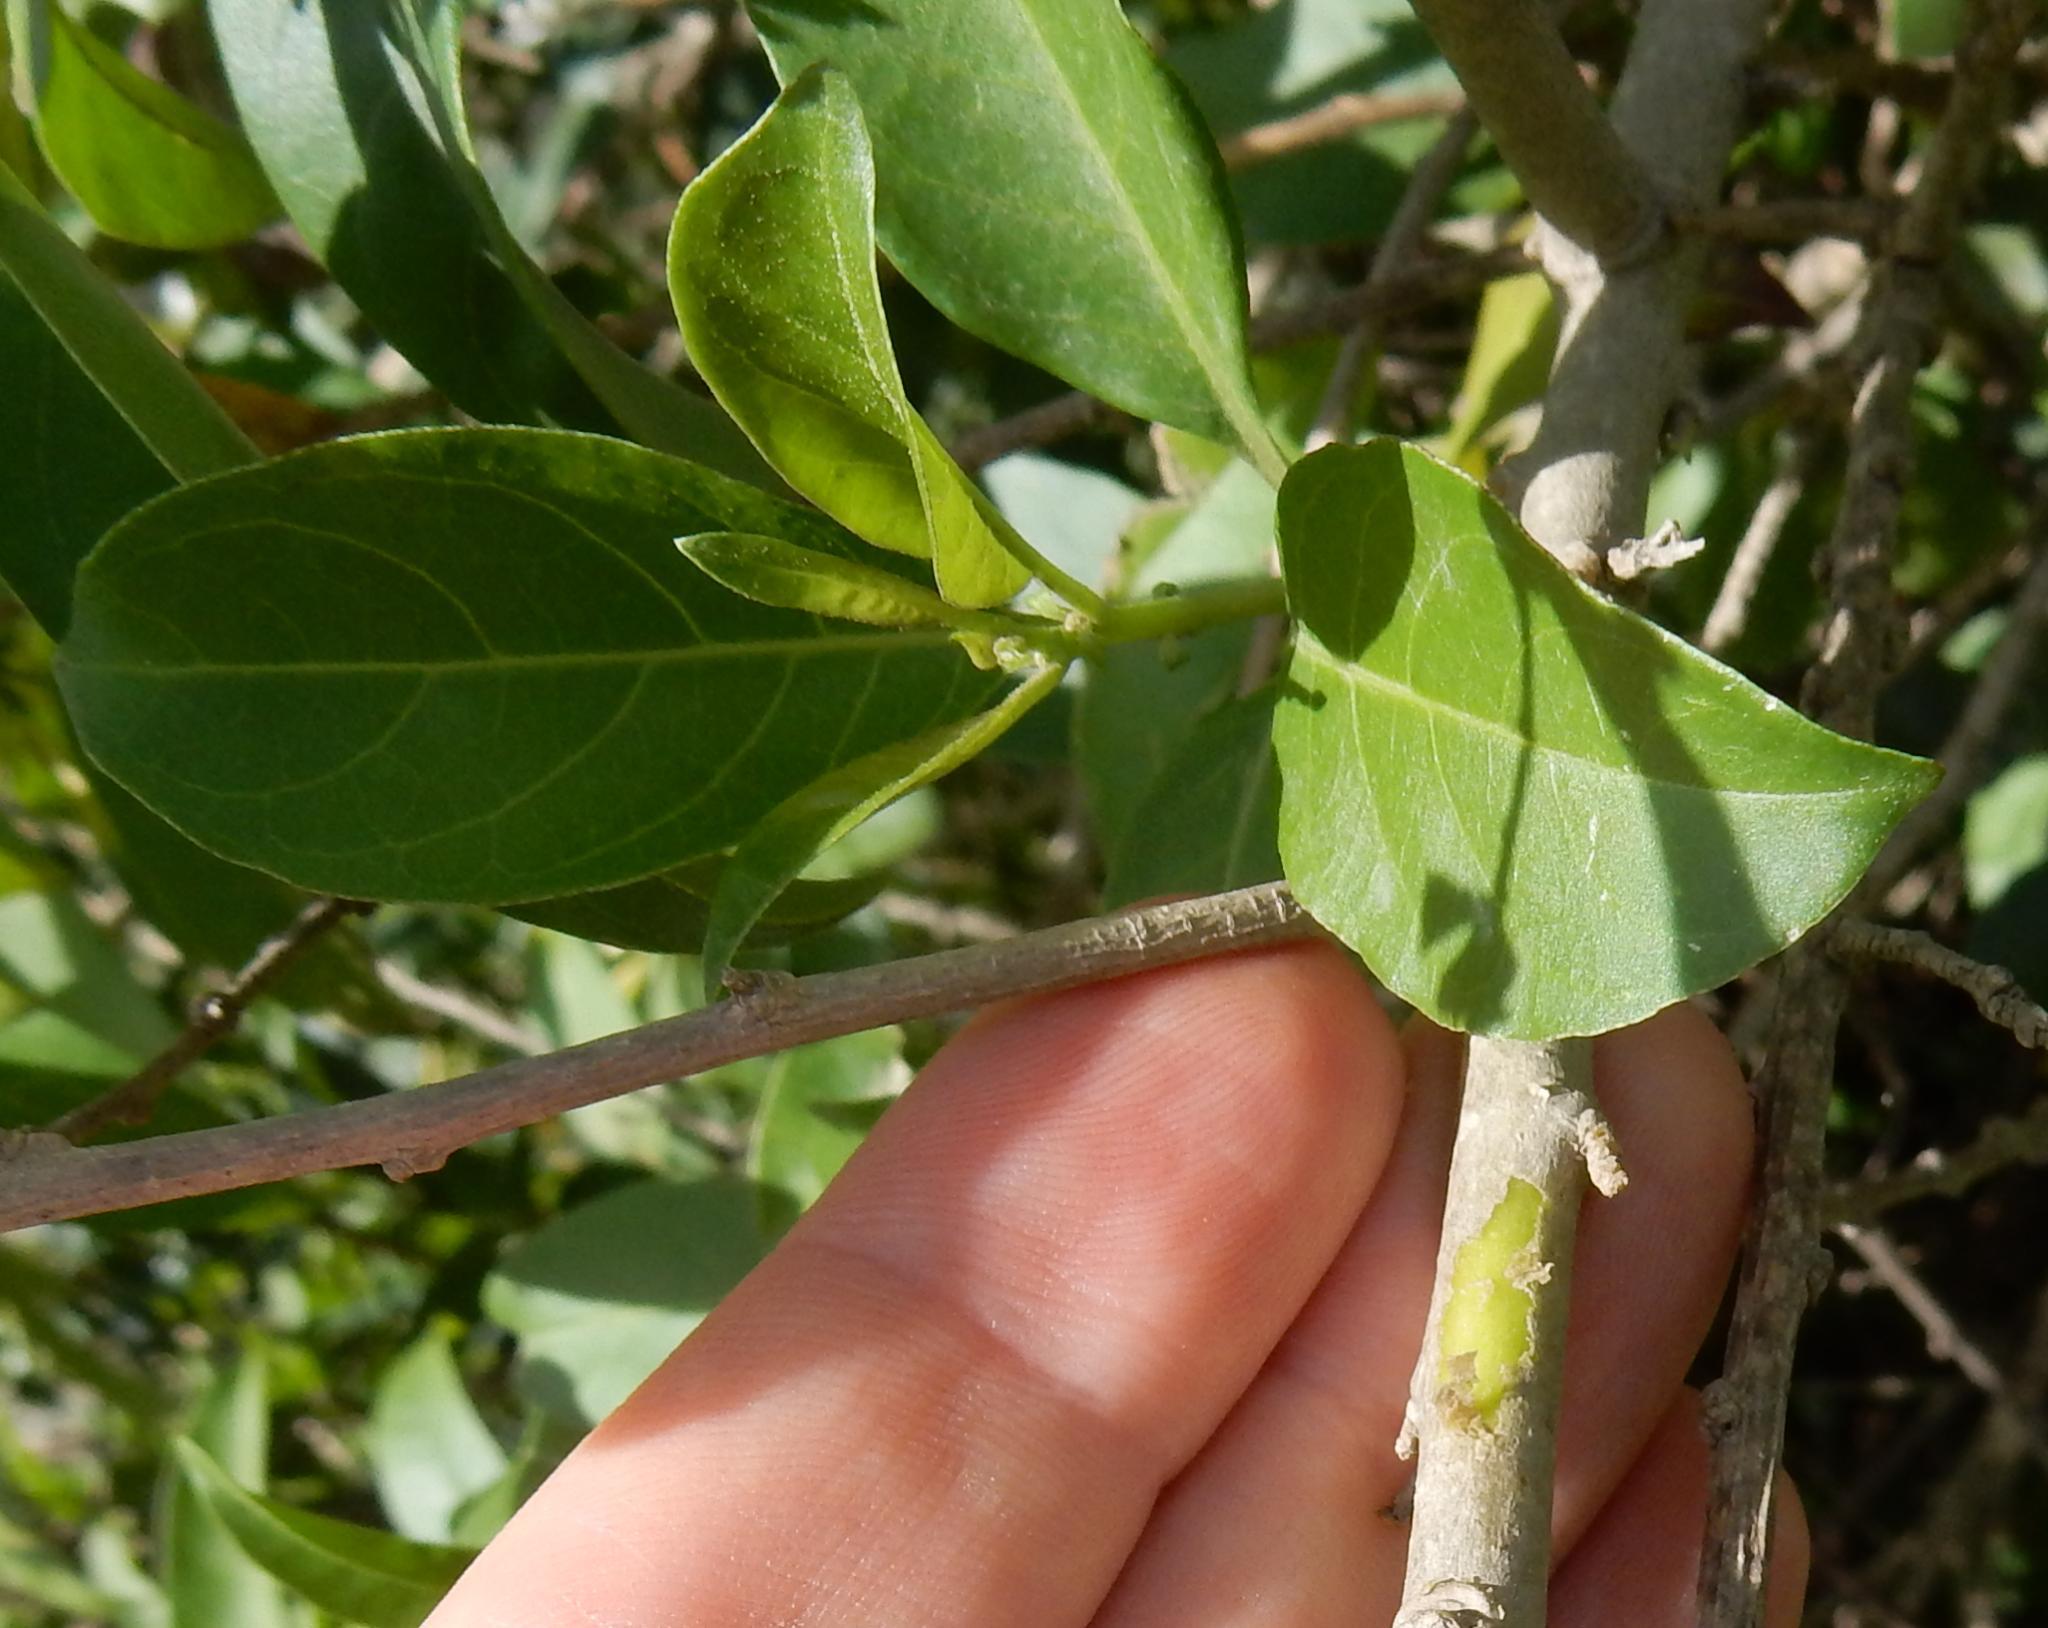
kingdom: Plantae
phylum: Tracheophyta
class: Magnoliopsida
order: Solanales
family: Solanaceae
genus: Cestrum
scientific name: Cestrum laevigatum
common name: Inkberry
